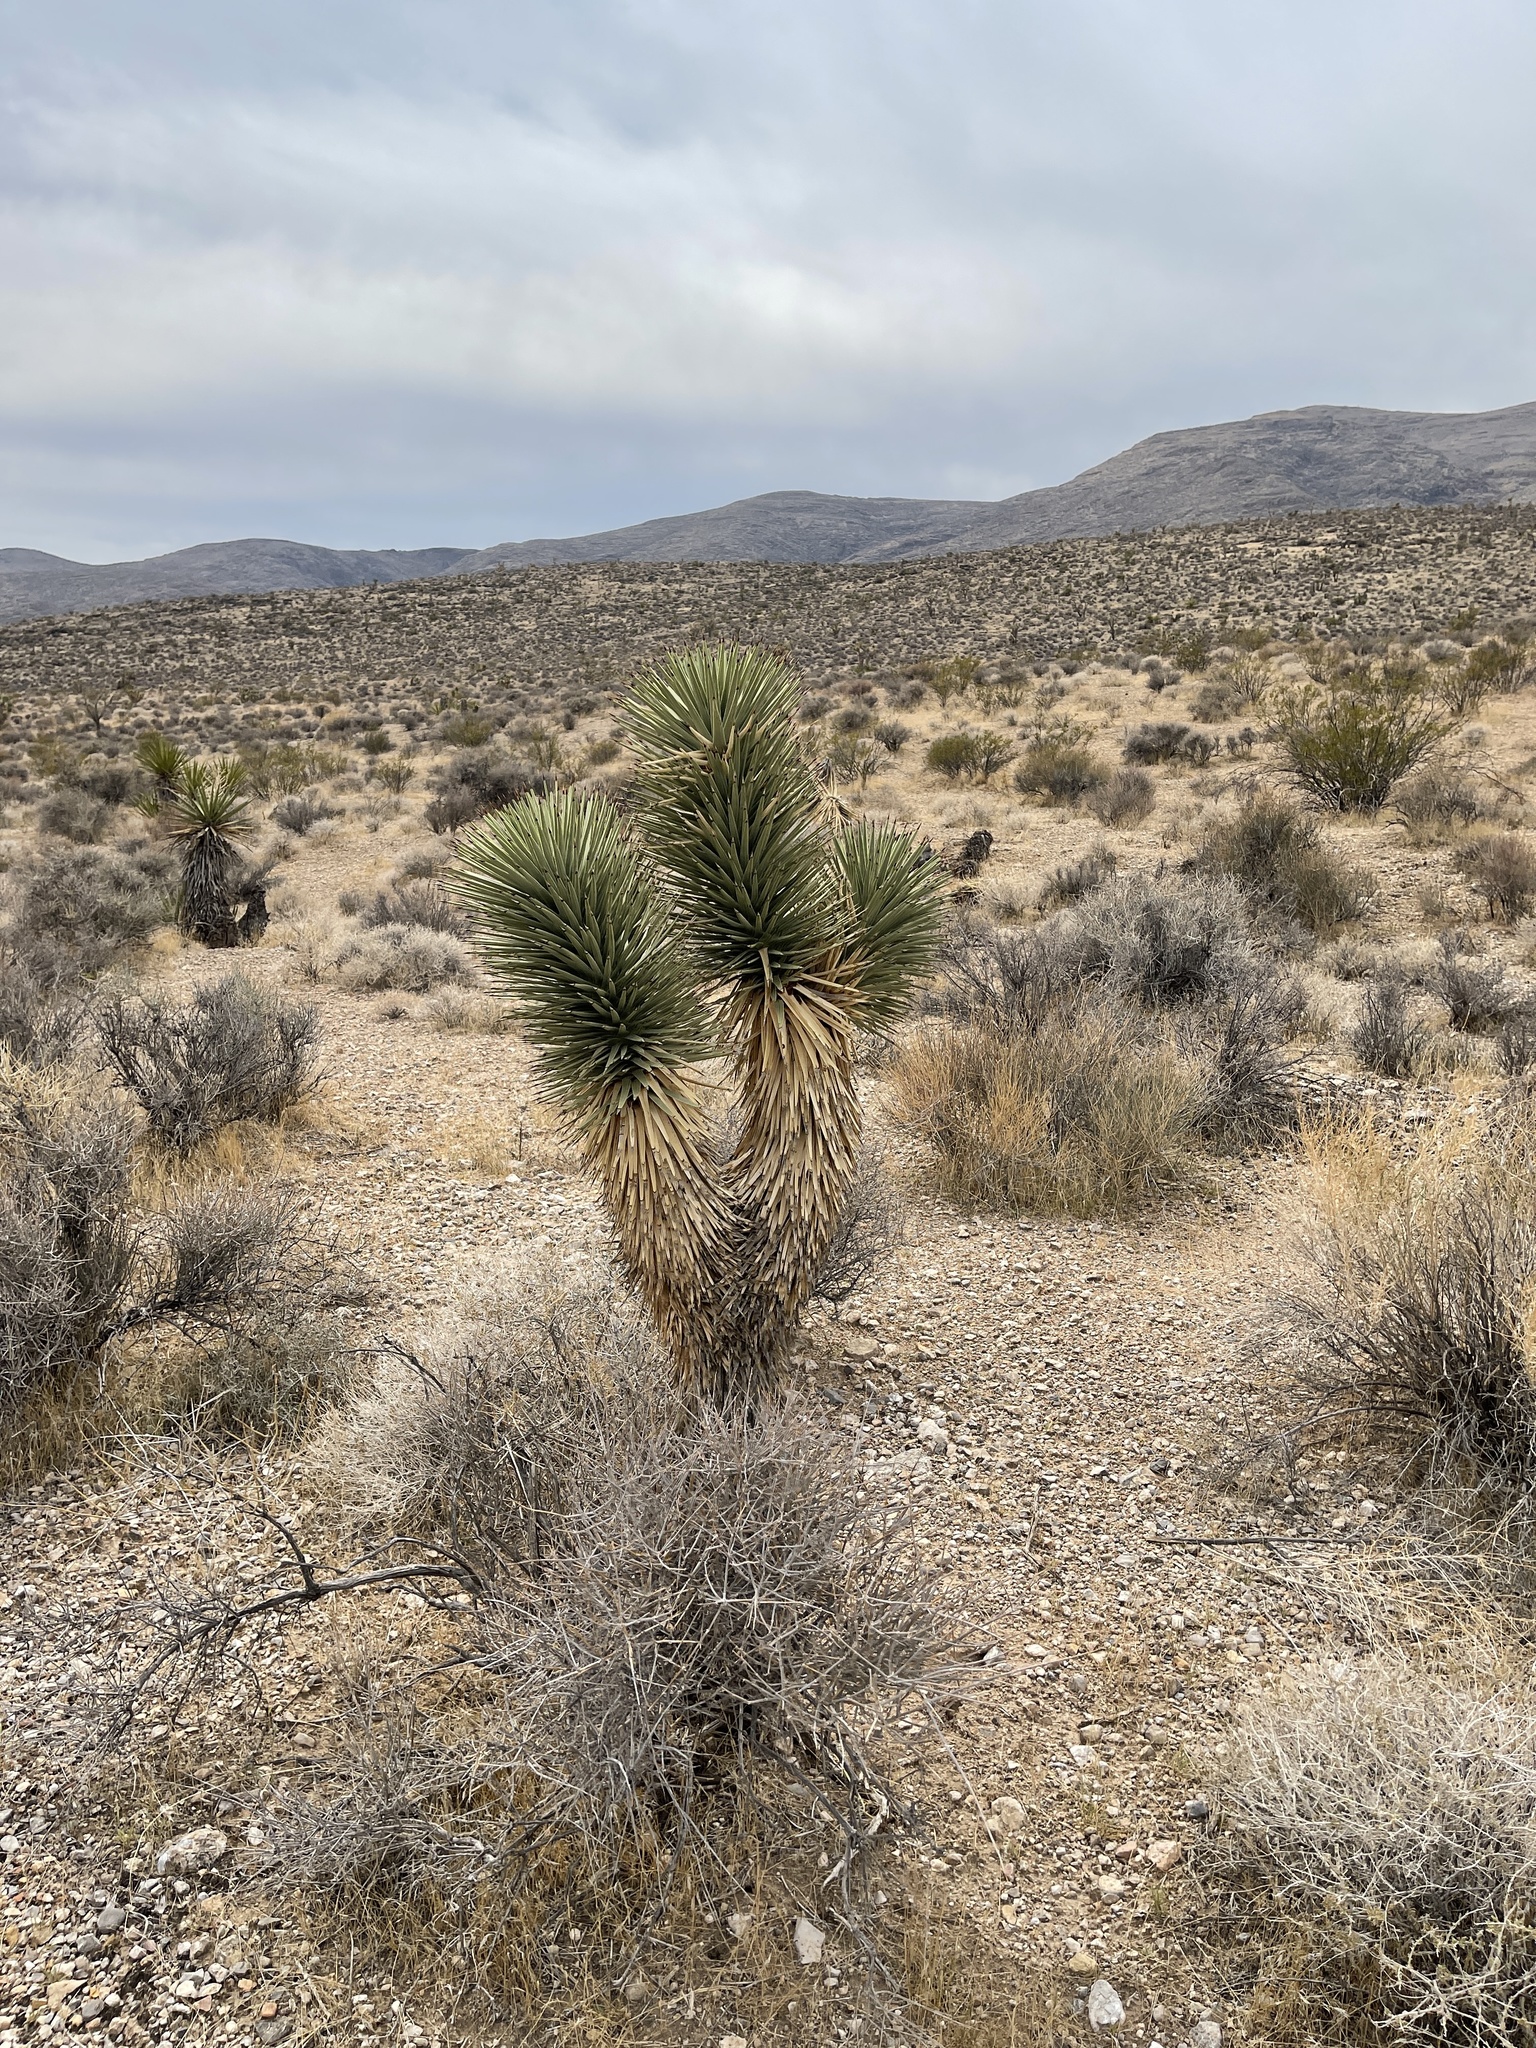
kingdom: Plantae
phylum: Tracheophyta
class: Liliopsida
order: Asparagales
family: Asparagaceae
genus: Yucca
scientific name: Yucca brevifolia
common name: Joshua tree
